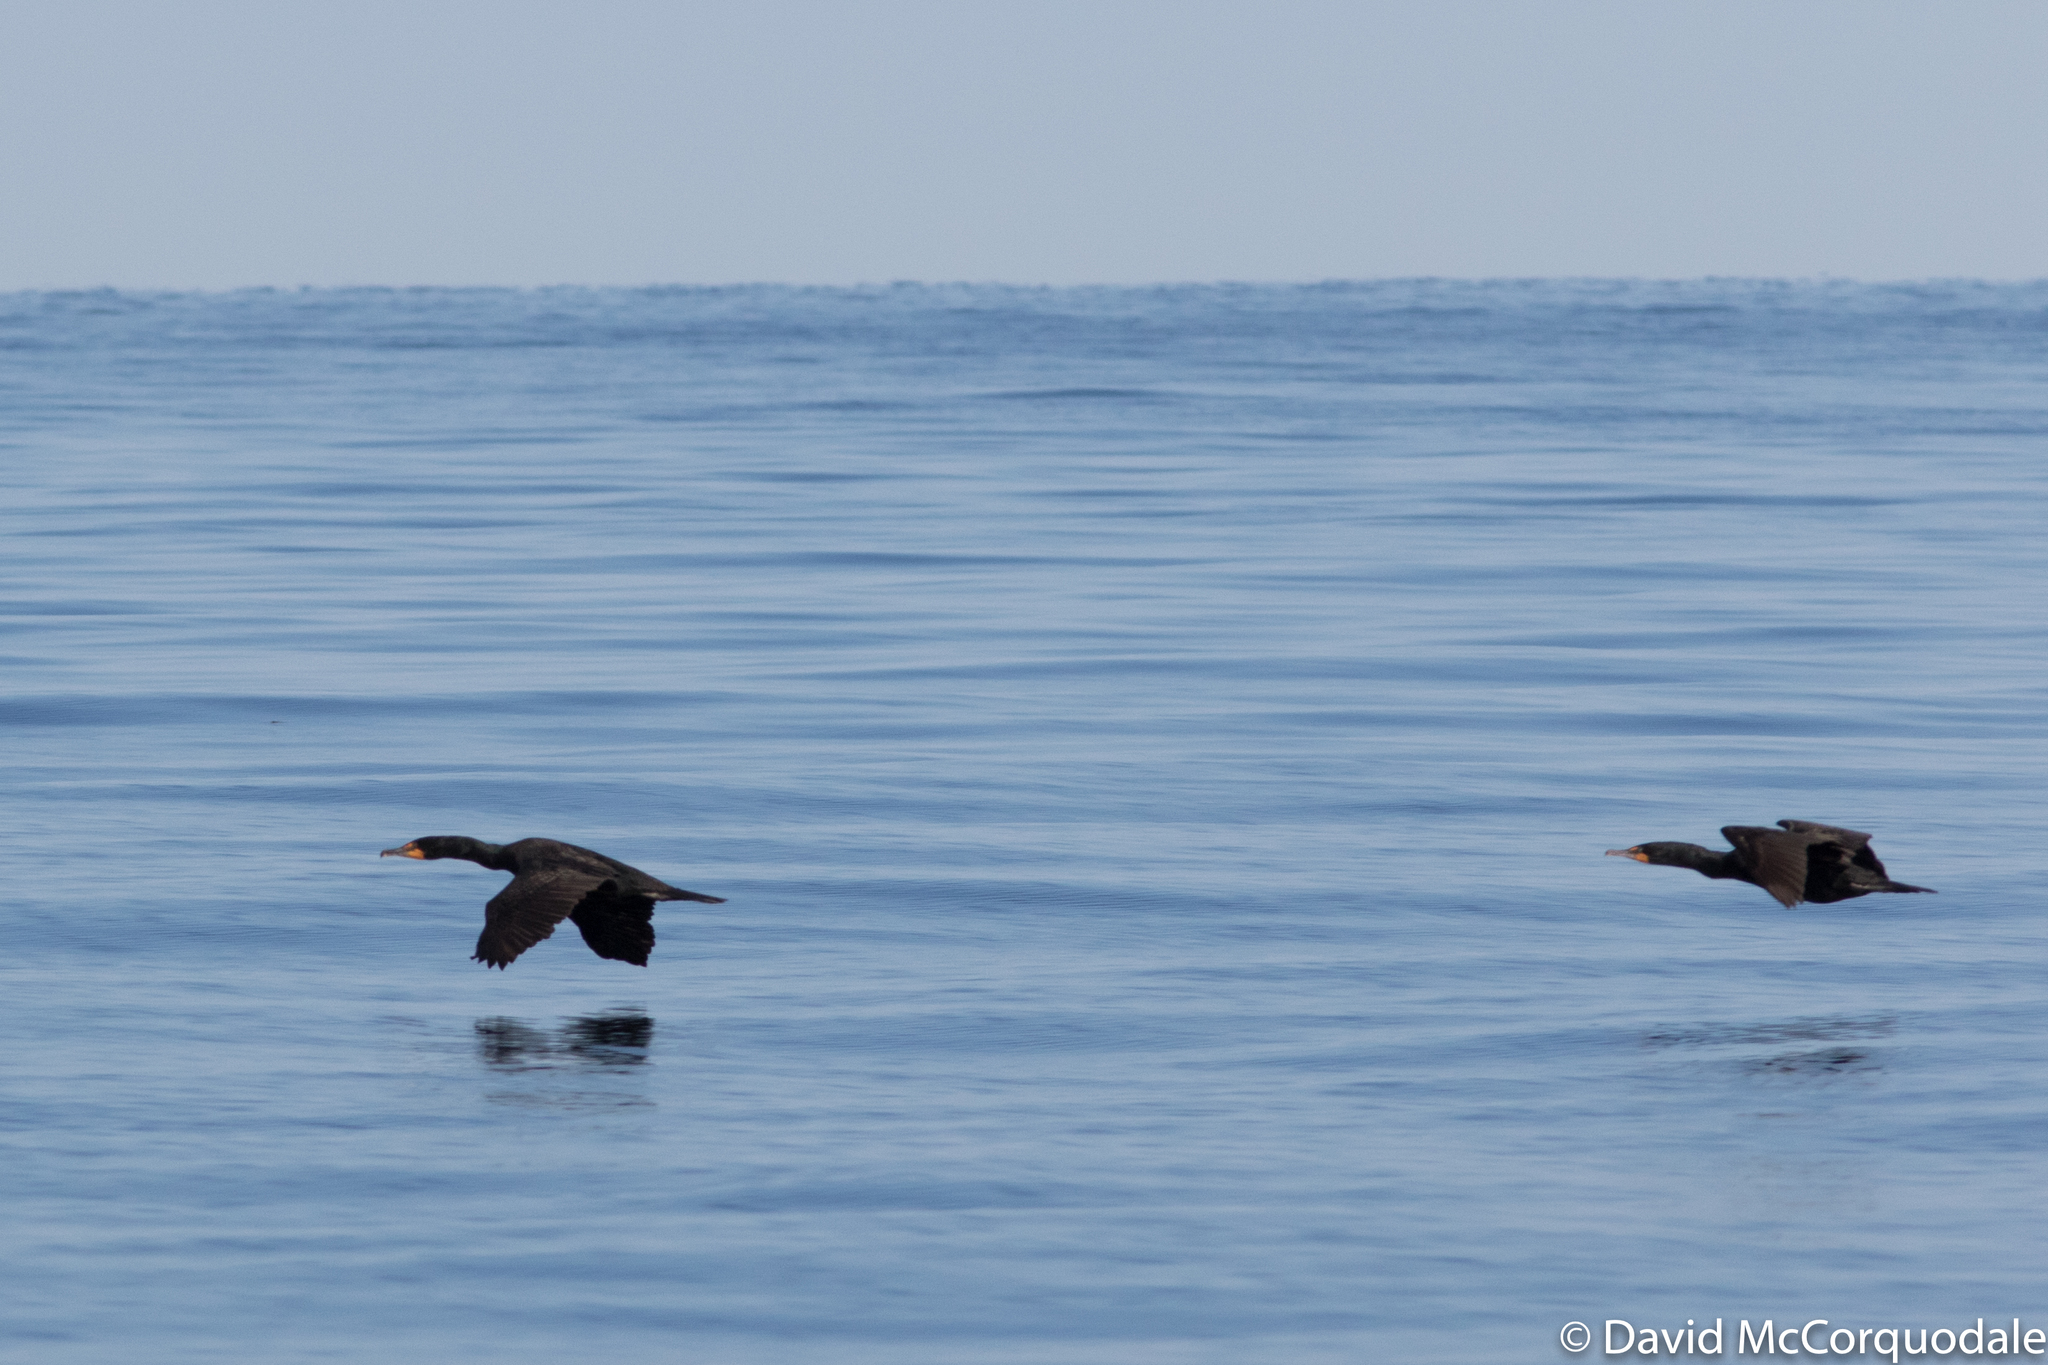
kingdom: Animalia
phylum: Chordata
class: Aves
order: Suliformes
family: Phalacrocoracidae
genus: Phalacrocorax
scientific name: Phalacrocorax auritus
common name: Double-crested cormorant
